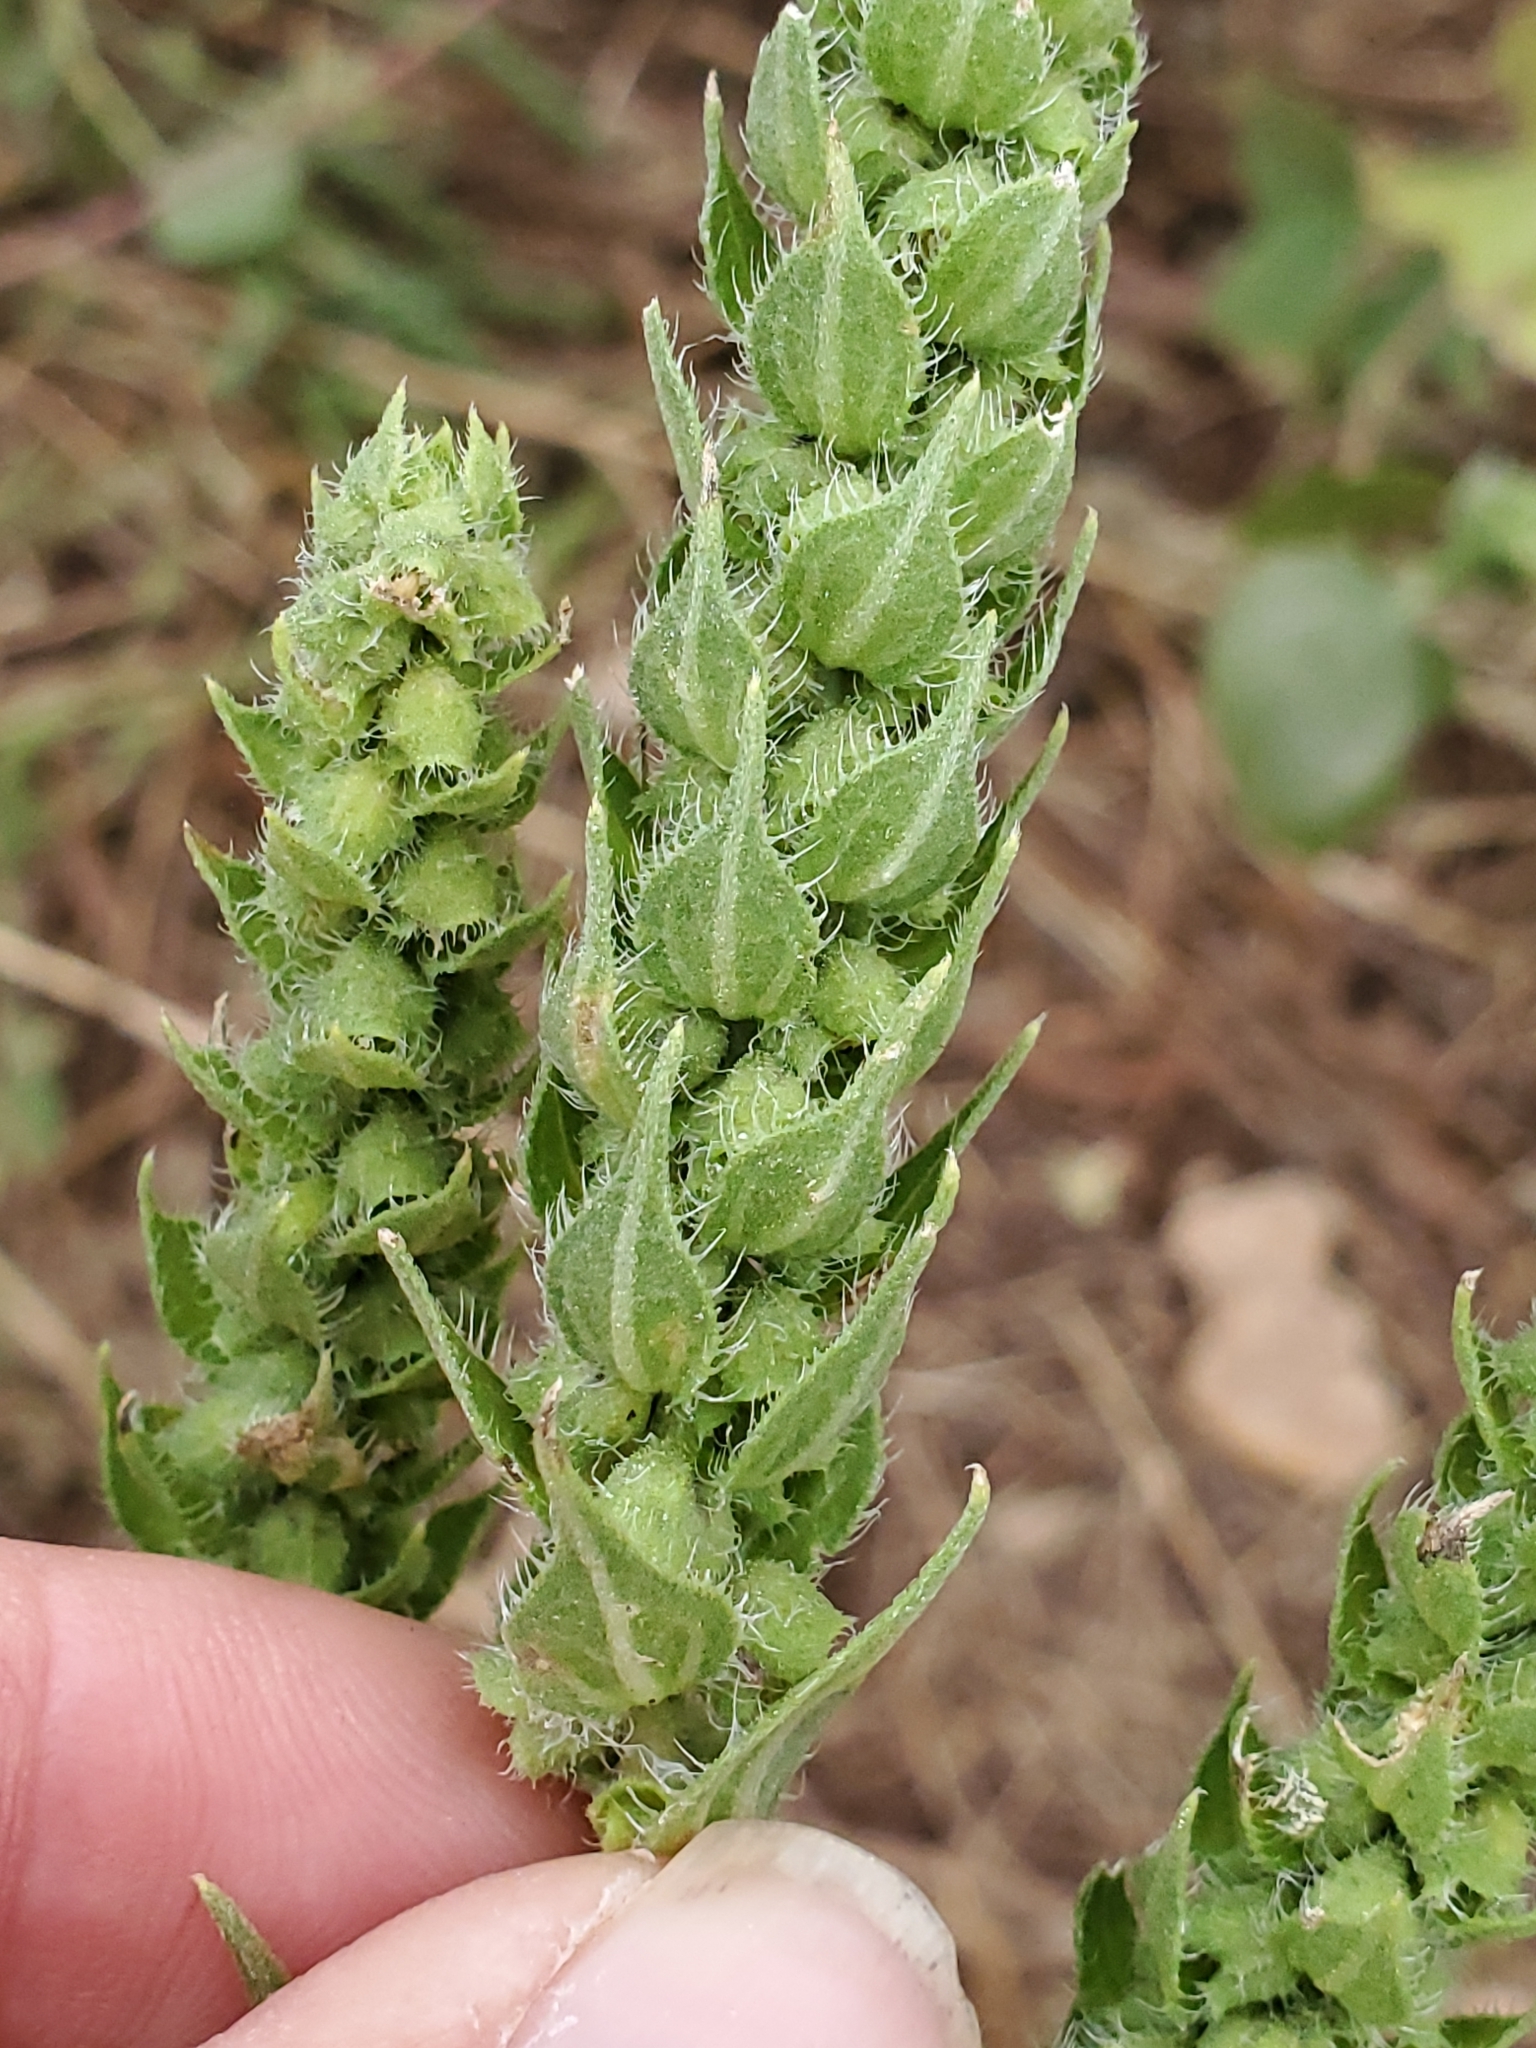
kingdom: Plantae
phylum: Tracheophyta
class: Magnoliopsida
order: Asterales
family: Asteraceae
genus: Iva
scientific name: Iva annua
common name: Marsh-elder
